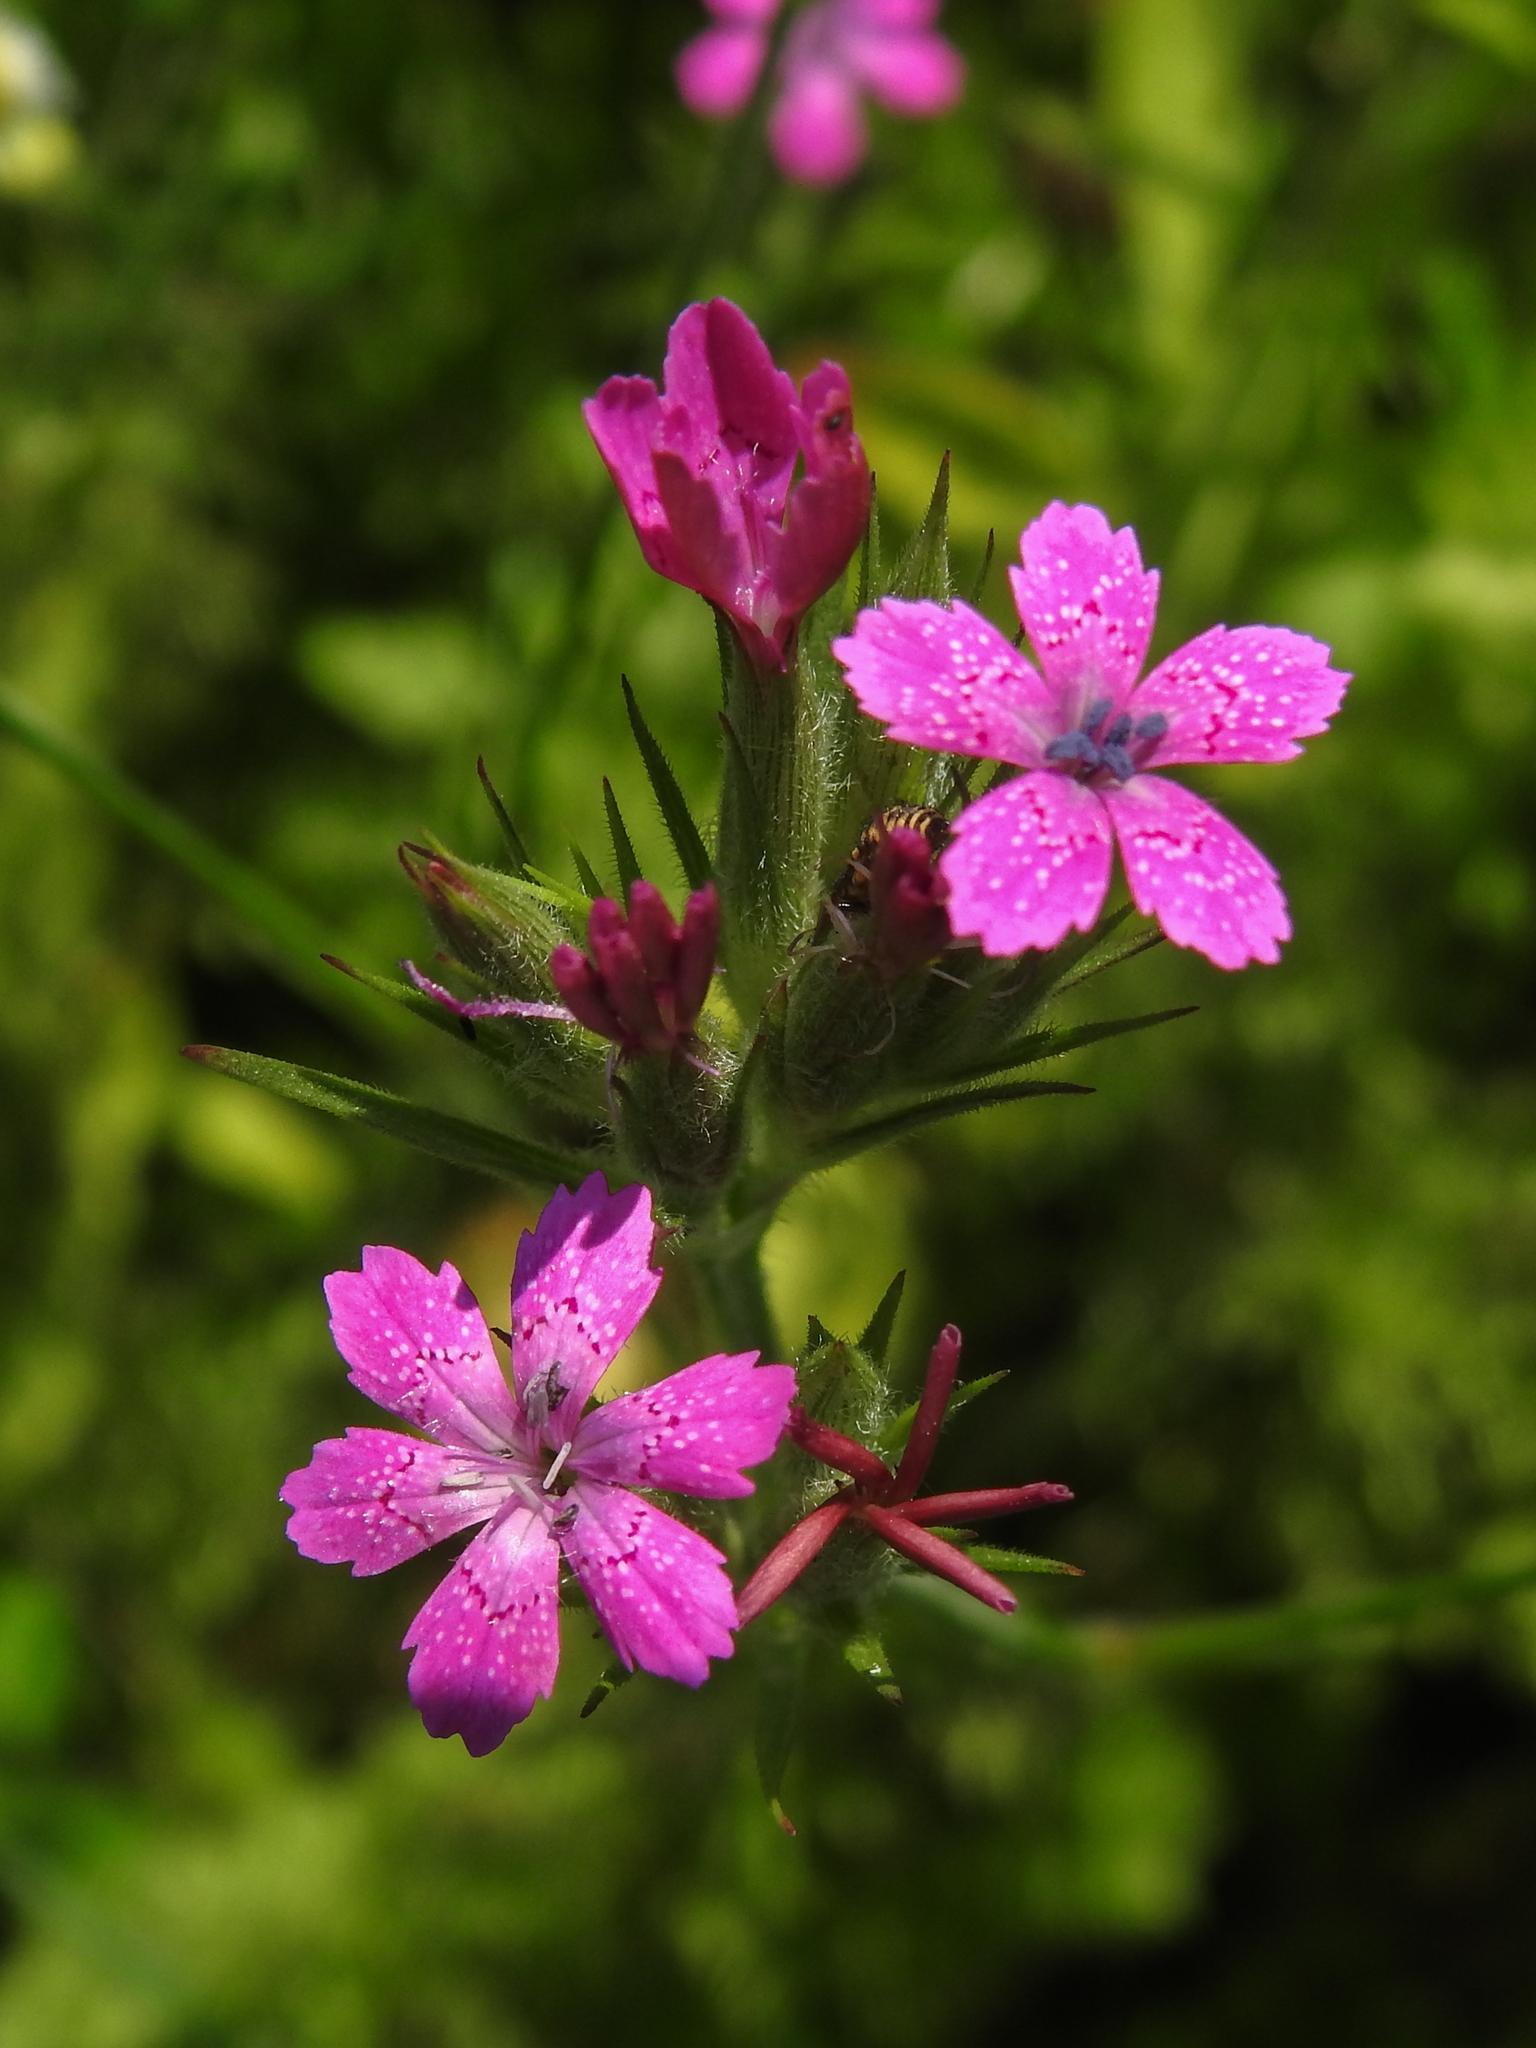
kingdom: Plantae
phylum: Tracheophyta
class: Magnoliopsida
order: Caryophyllales
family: Caryophyllaceae
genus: Dianthus
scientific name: Dianthus armeria
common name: Deptford pink
